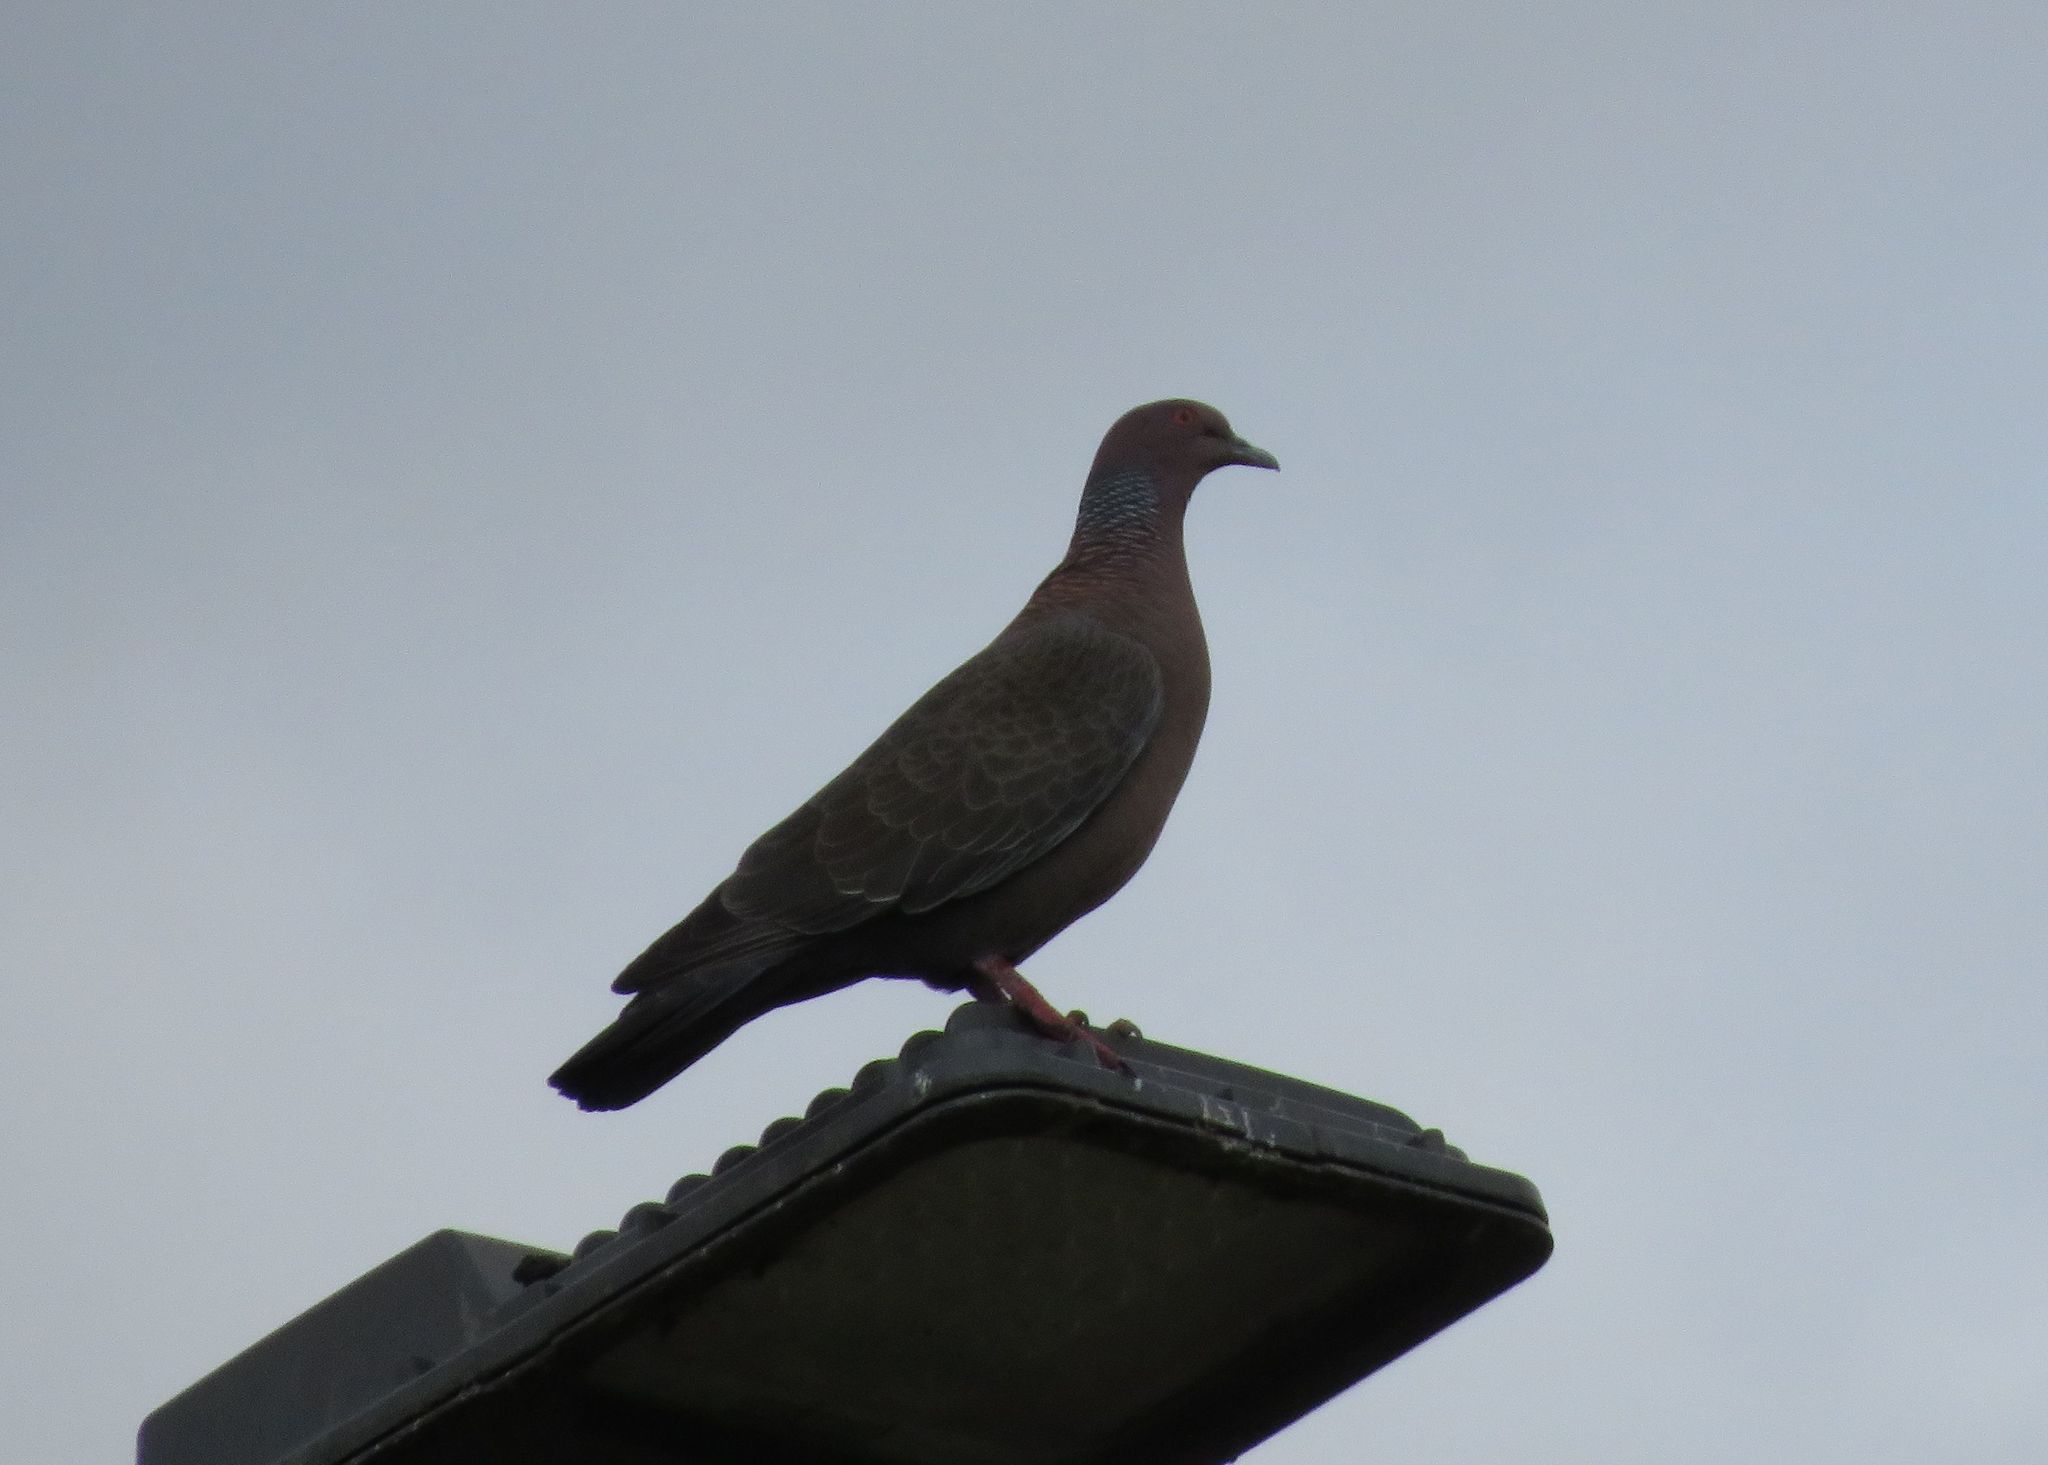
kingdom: Animalia
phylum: Chordata
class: Aves
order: Columbiformes
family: Columbidae
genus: Patagioenas
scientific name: Patagioenas picazuro
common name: Picazuro pigeon
